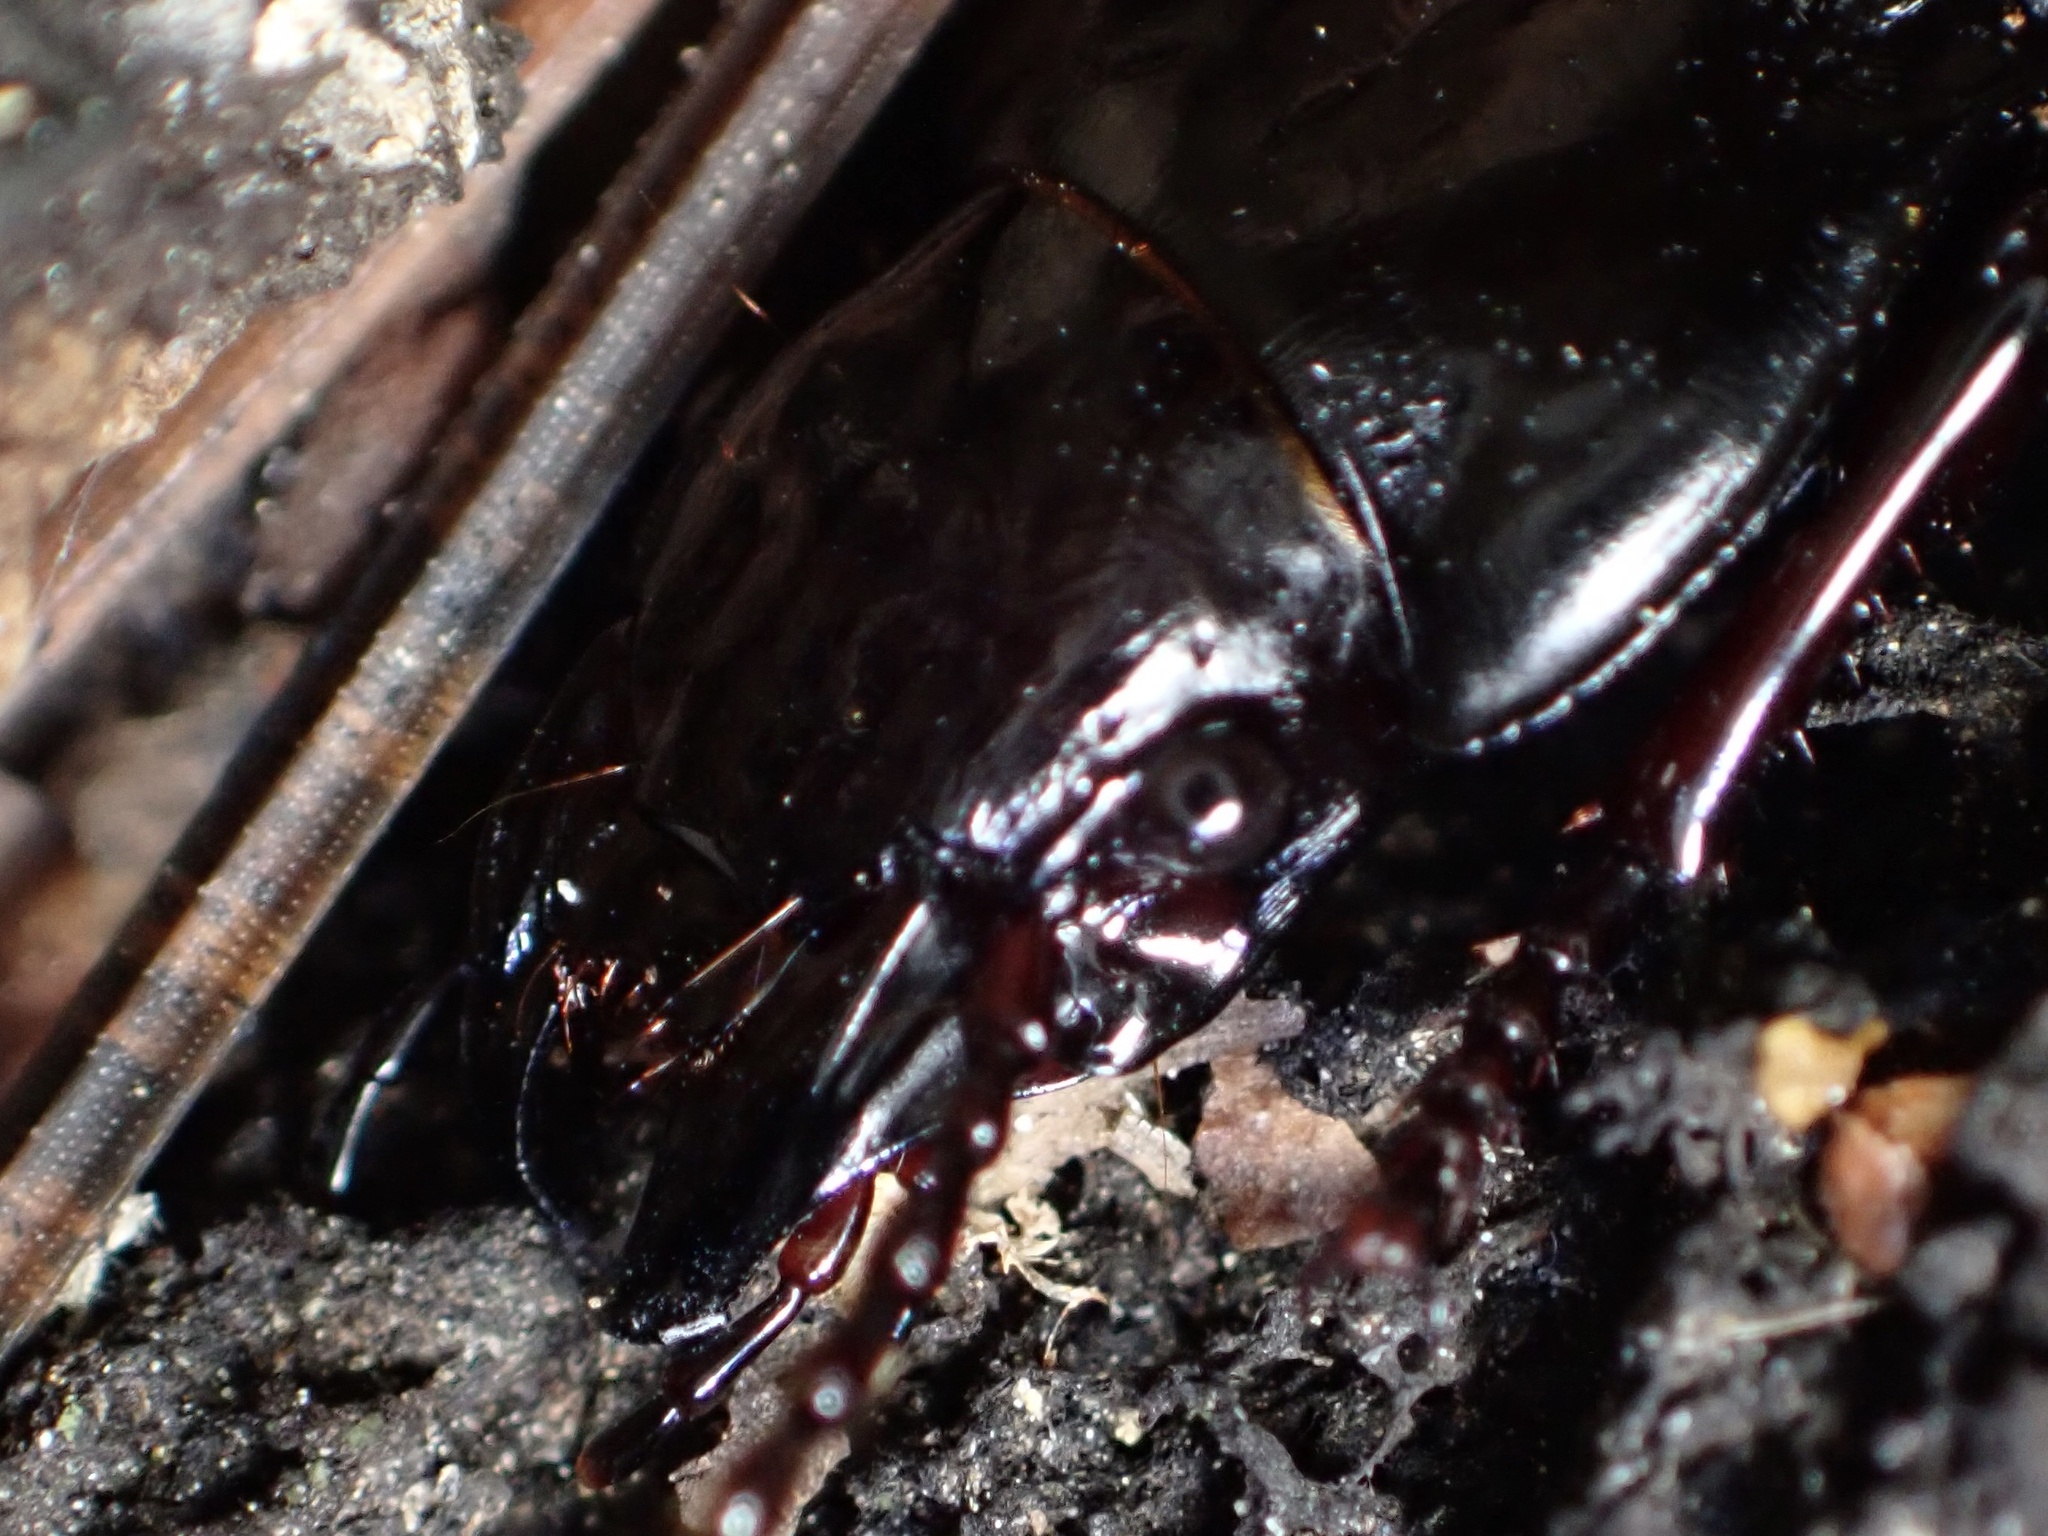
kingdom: Animalia
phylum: Arthropoda
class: Insecta
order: Coleoptera
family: Carabidae
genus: Pterostichus
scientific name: Pterostichus lama
